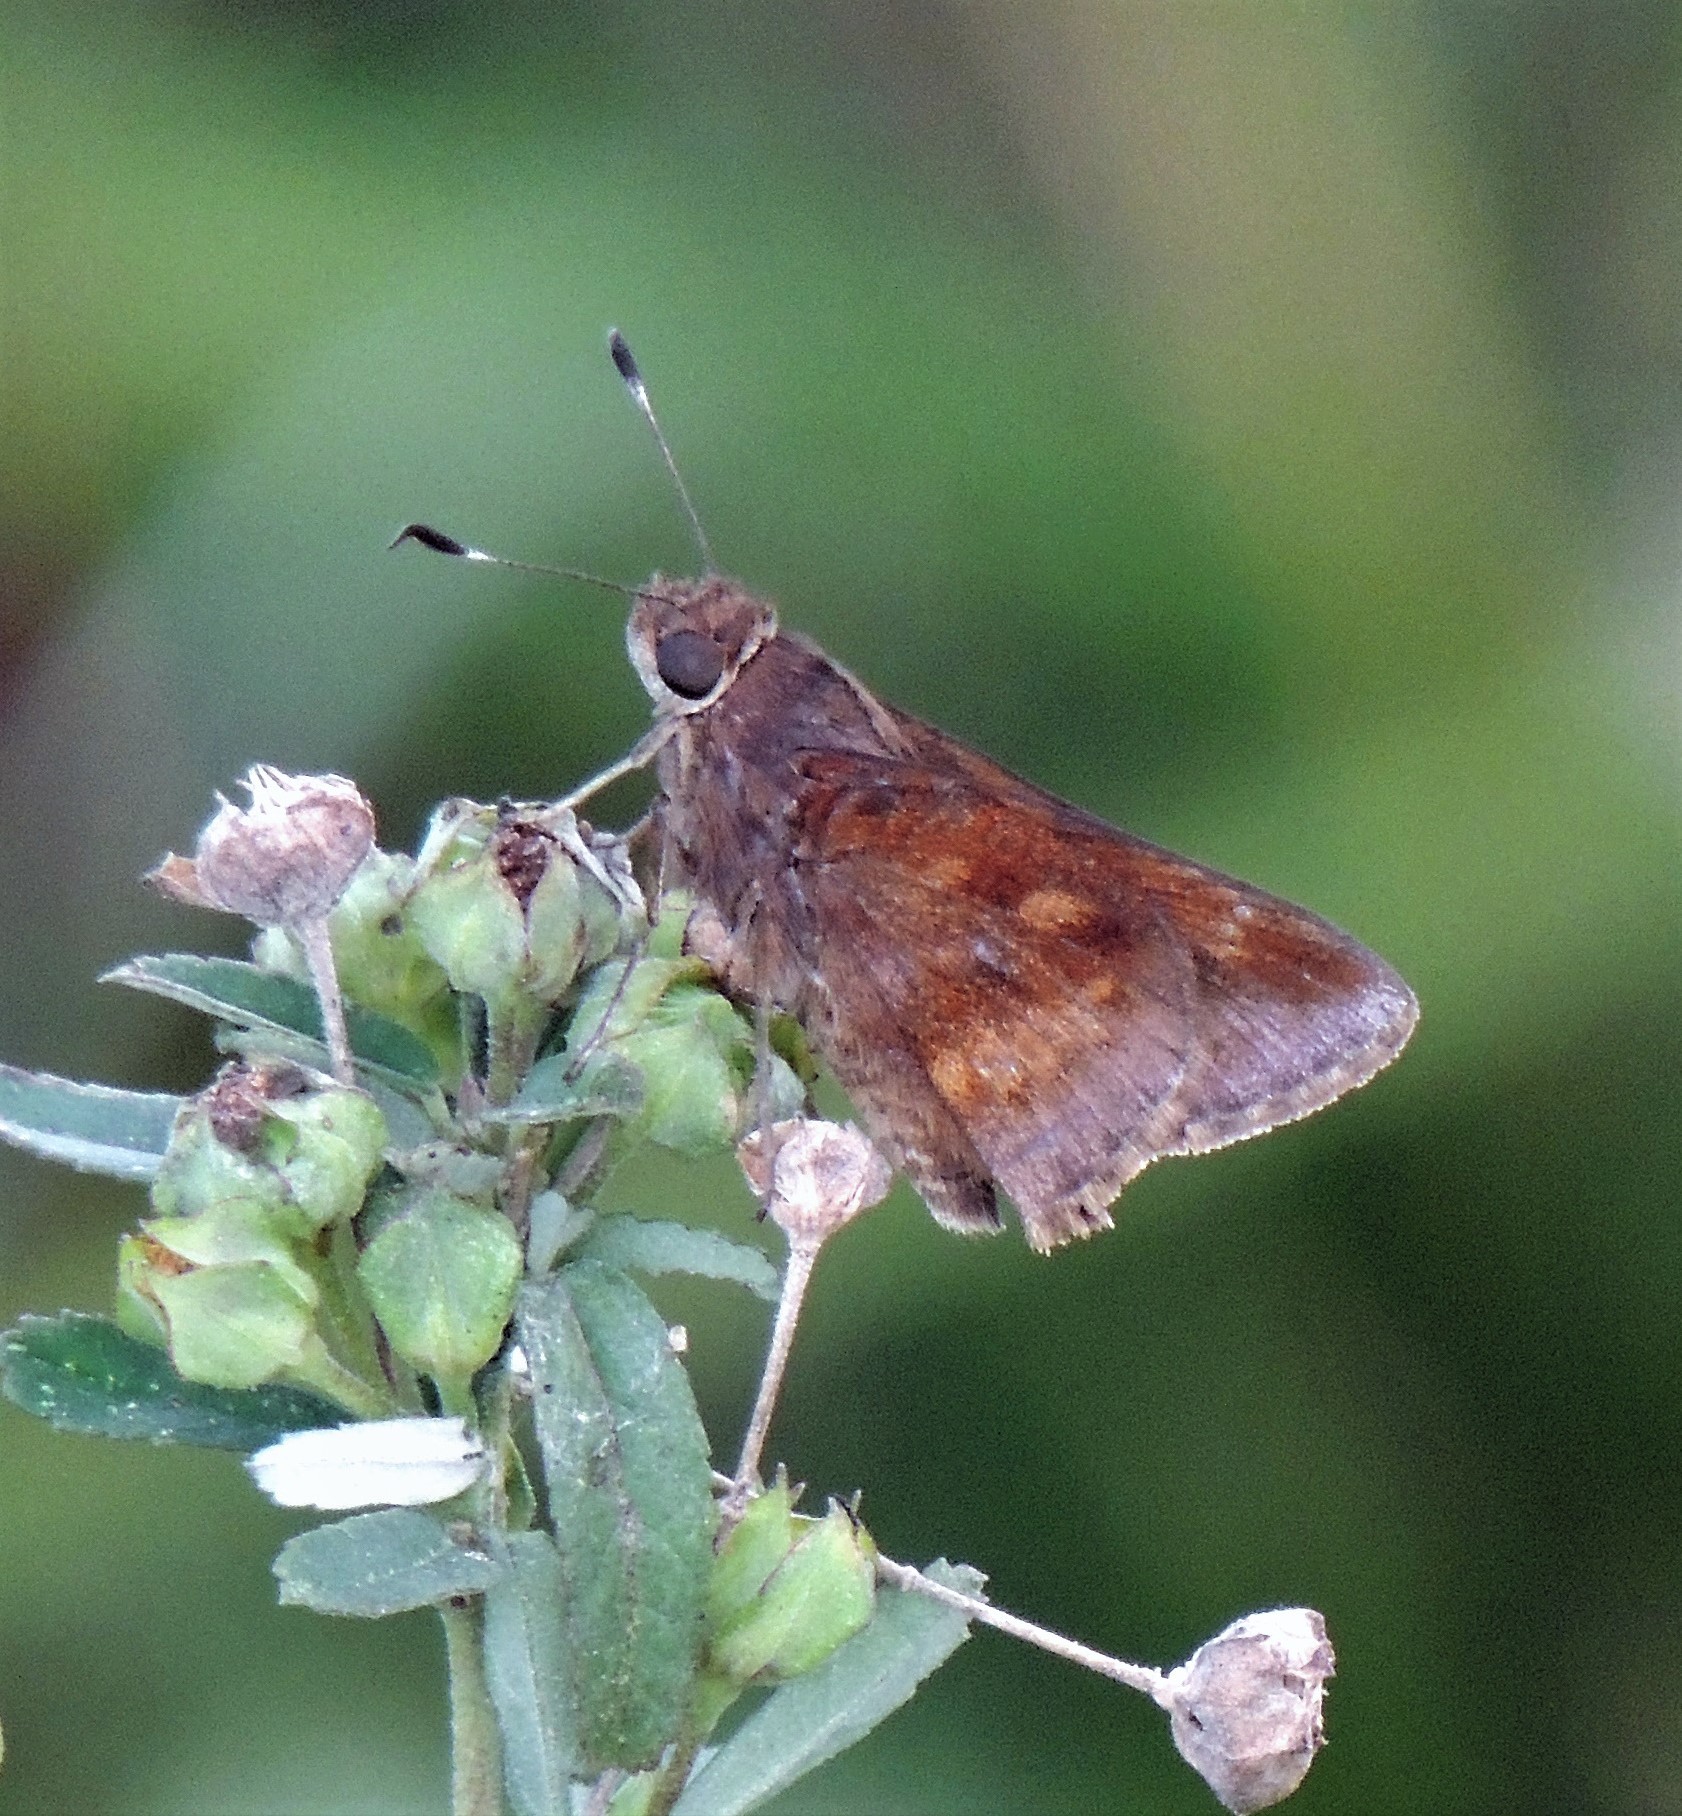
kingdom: Animalia
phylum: Arthropoda
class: Insecta
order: Lepidoptera
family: Hesperiidae
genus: Quinta
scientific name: Quinta cannae
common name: Canna skipper
